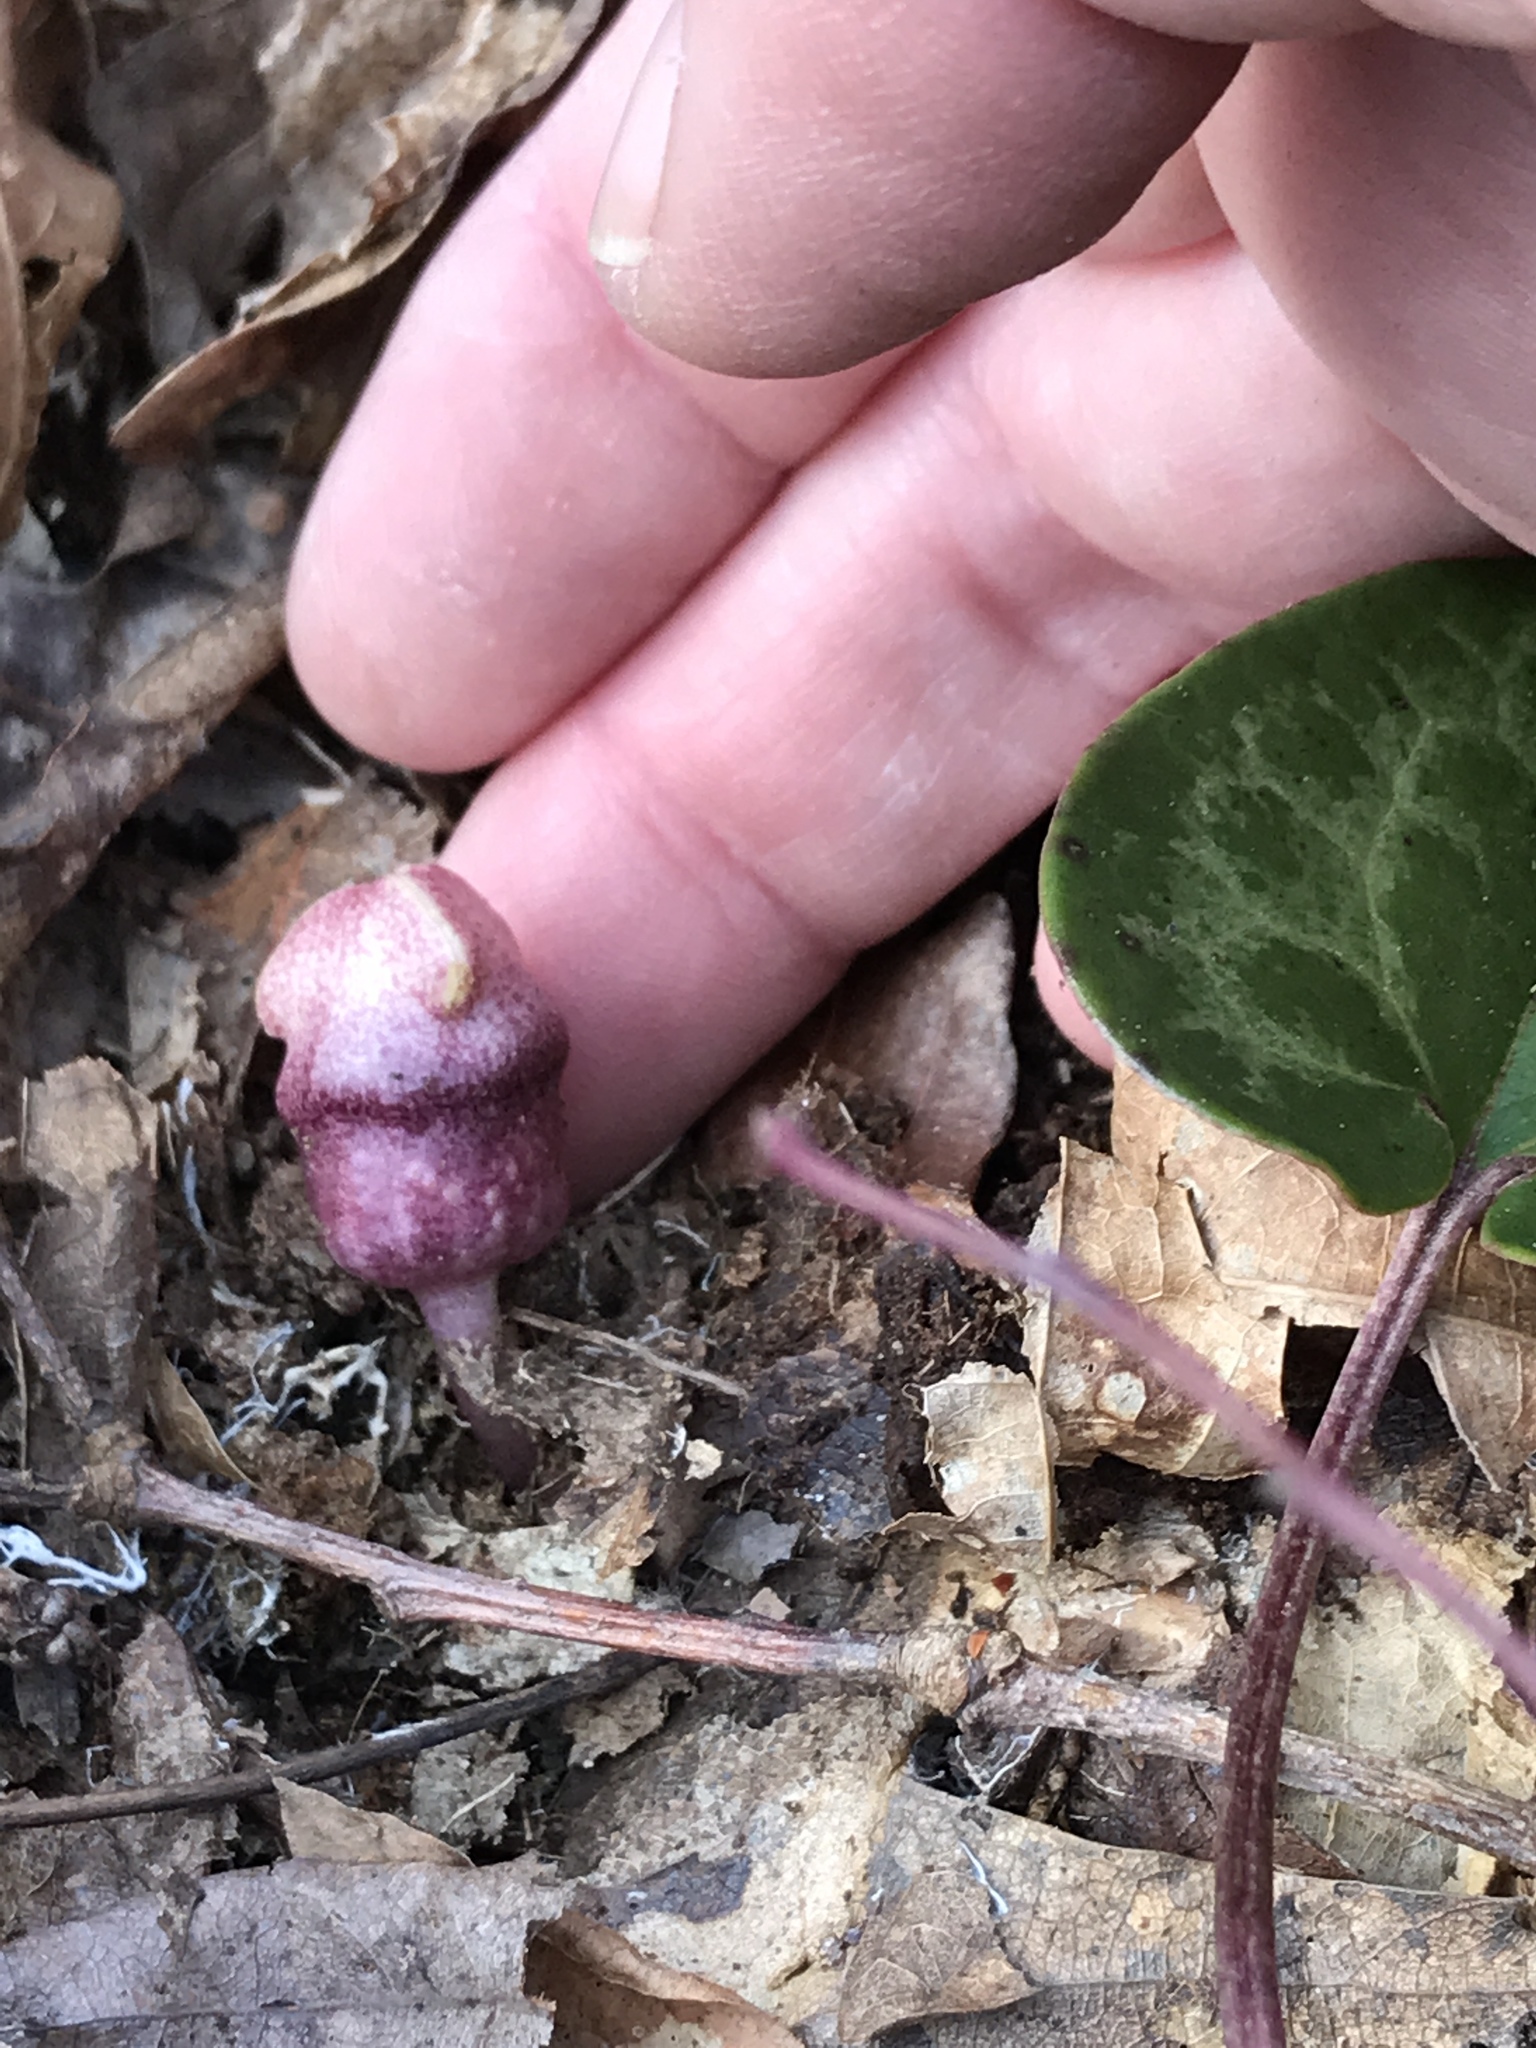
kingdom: Plantae
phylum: Tracheophyta
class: Magnoliopsida
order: Piperales
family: Aristolochiaceae
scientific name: Aristolochiaceae
